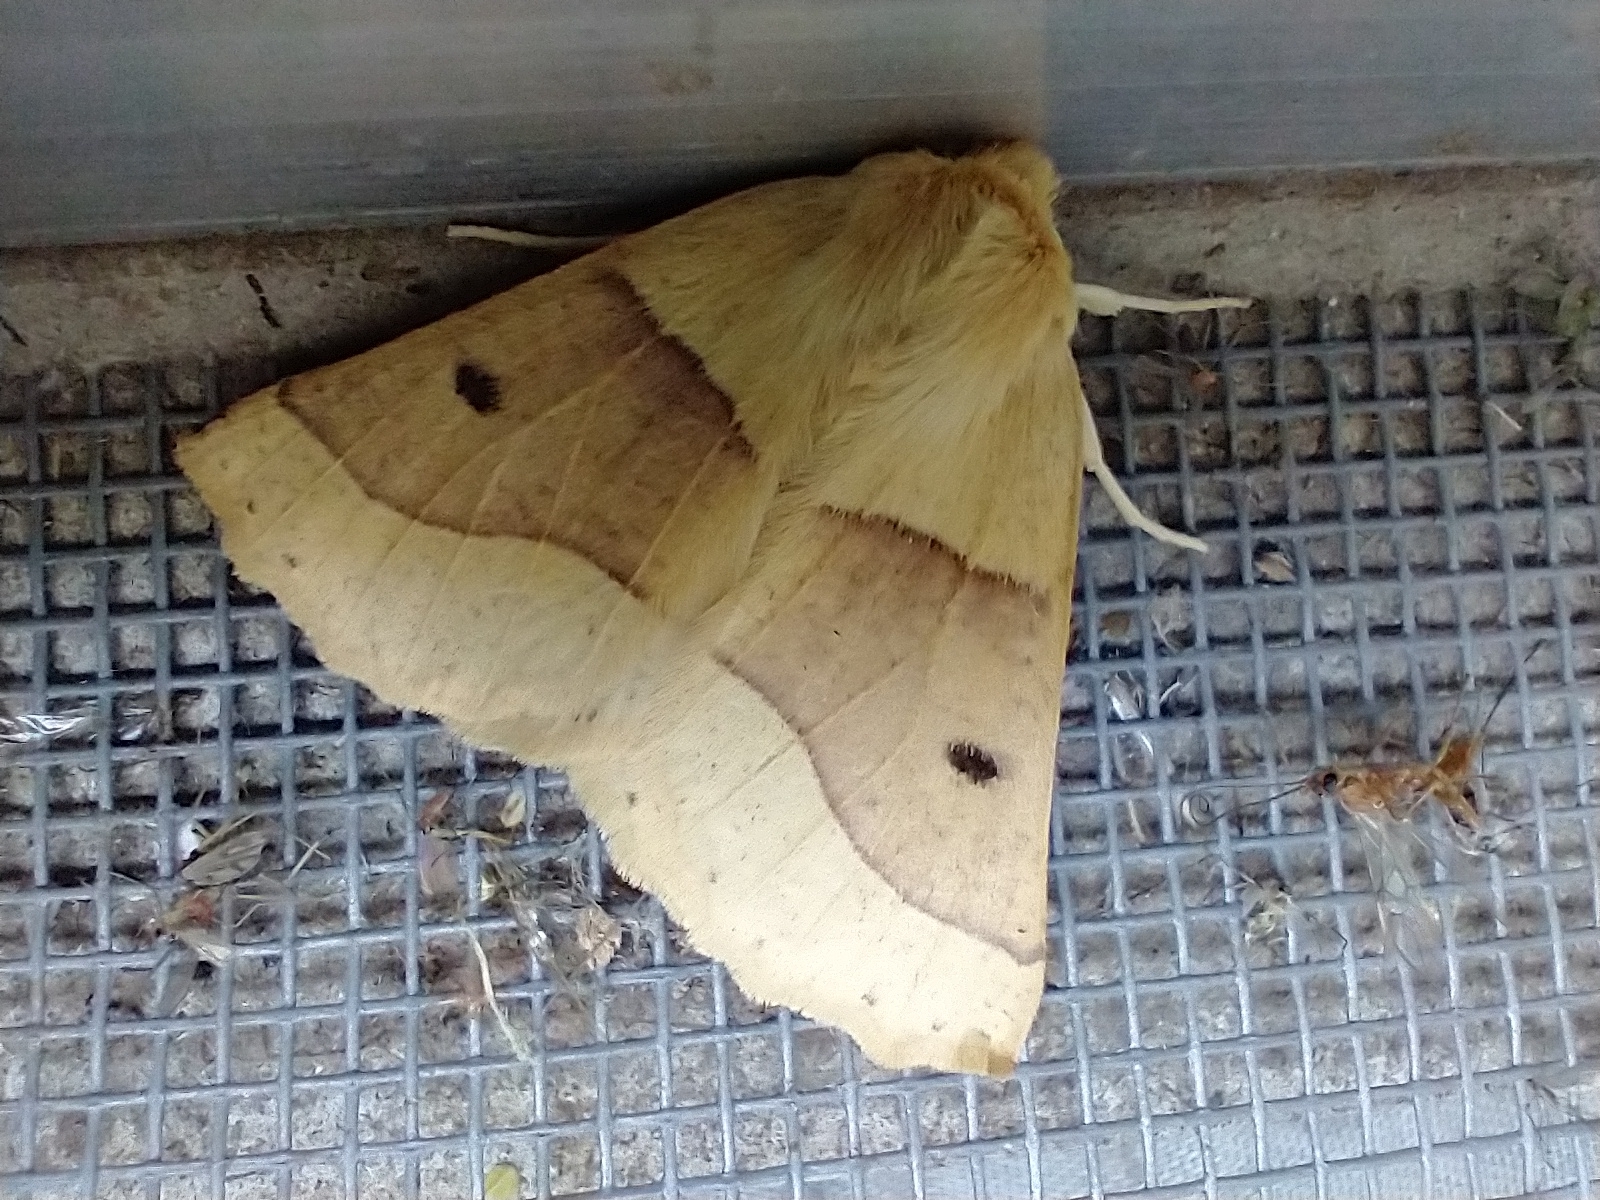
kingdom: Animalia
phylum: Arthropoda
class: Insecta
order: Lepidoptera
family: Geometridae
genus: Crocallis
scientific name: Crocallis elinguaria
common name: Scalloped oak
